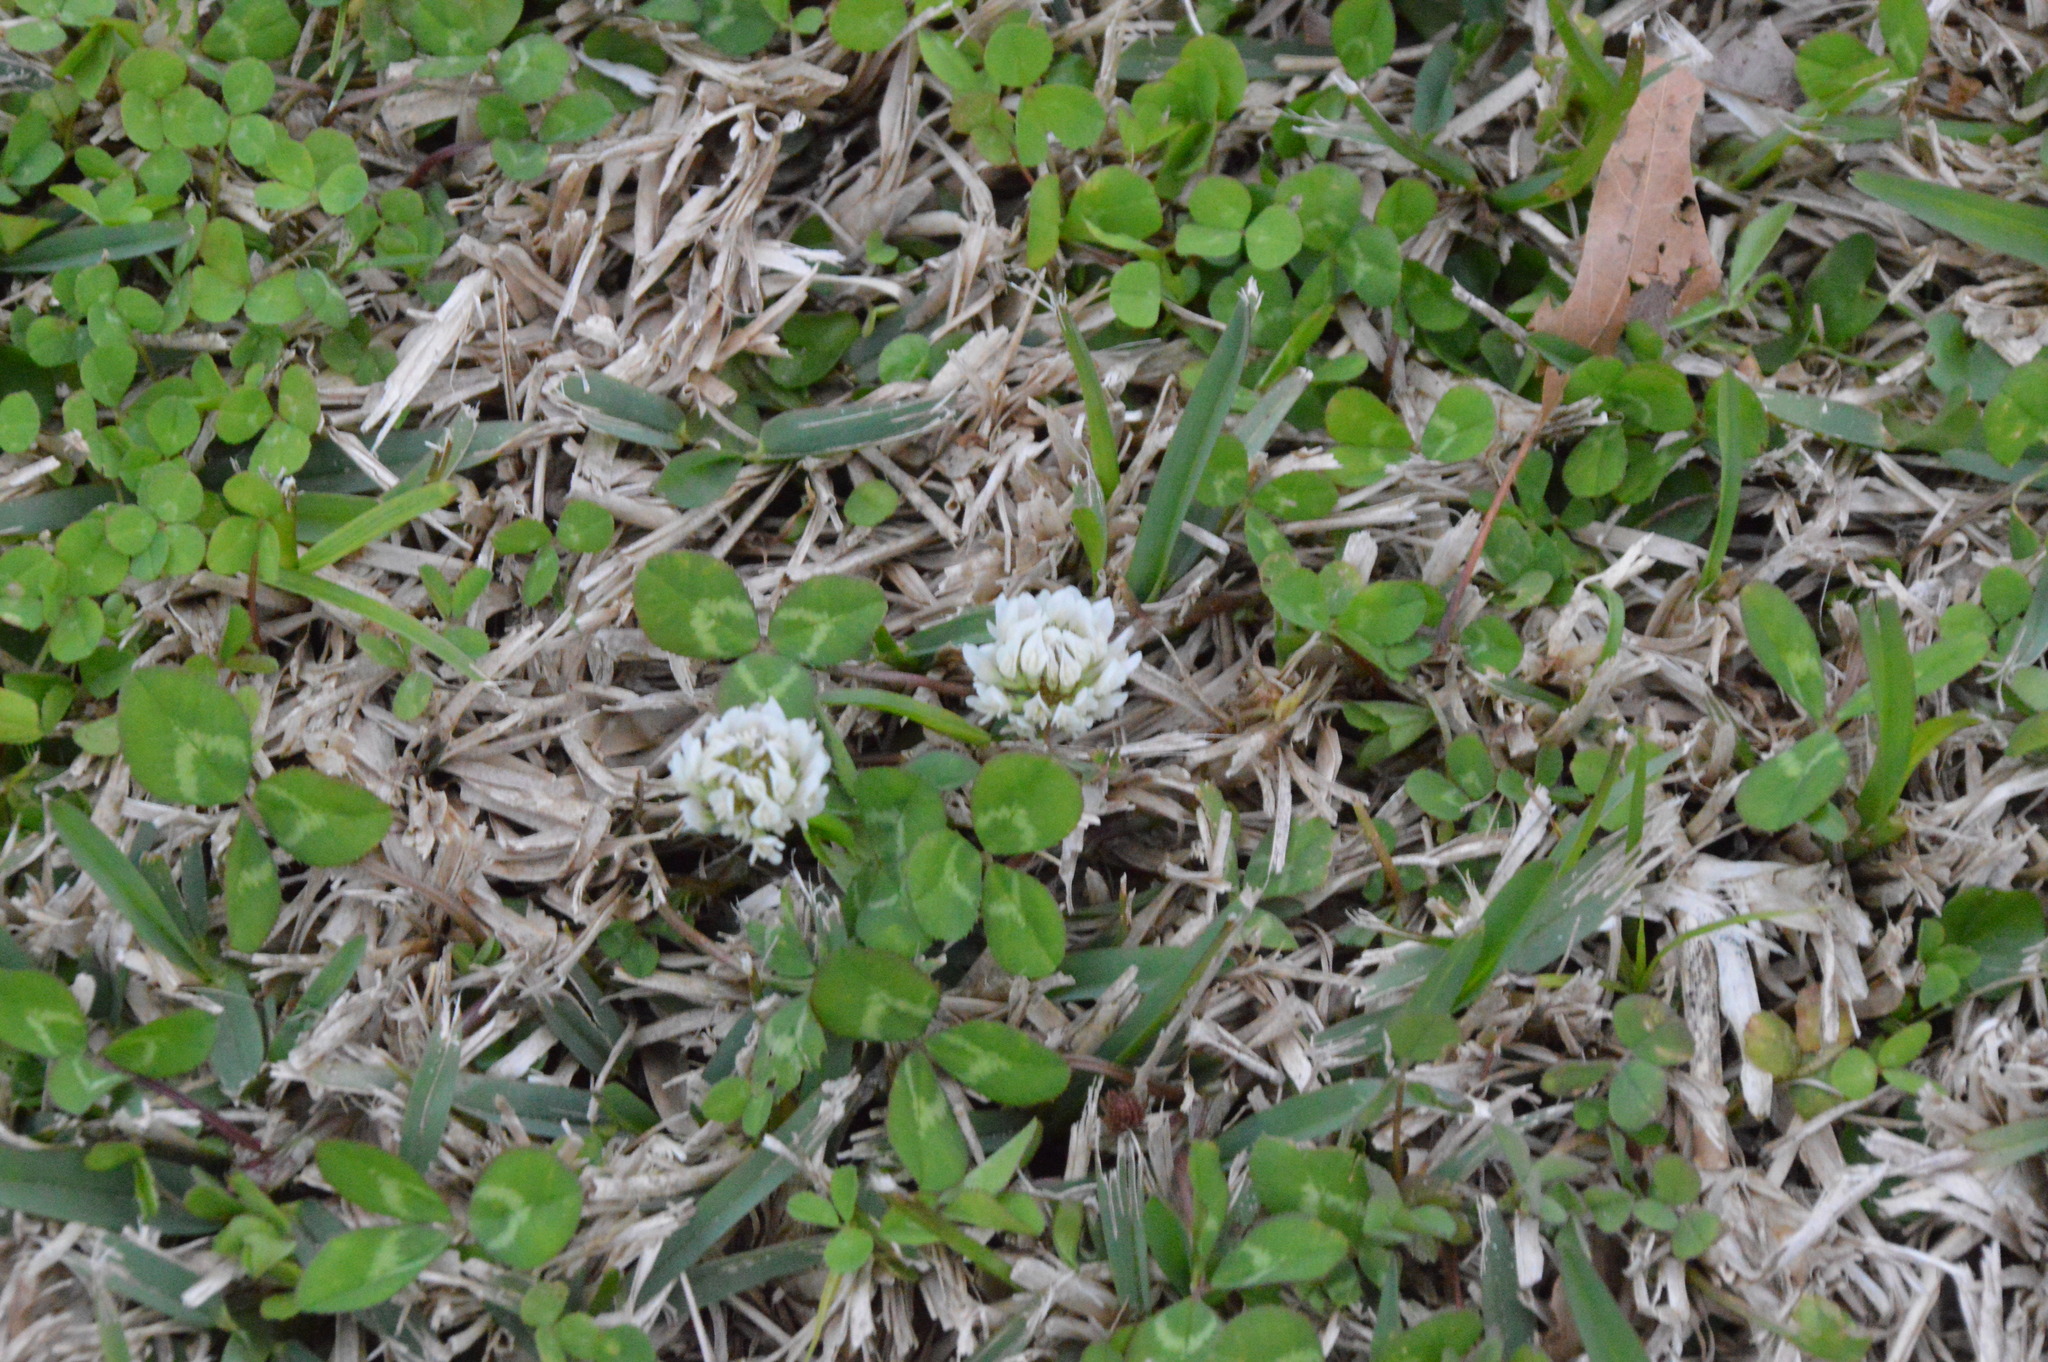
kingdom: Plantae
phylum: Tracheophyta
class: Magnoliopsida
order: Fabales
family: Fabaceae
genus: Trifolium
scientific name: Trifolium repens
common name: White clover
